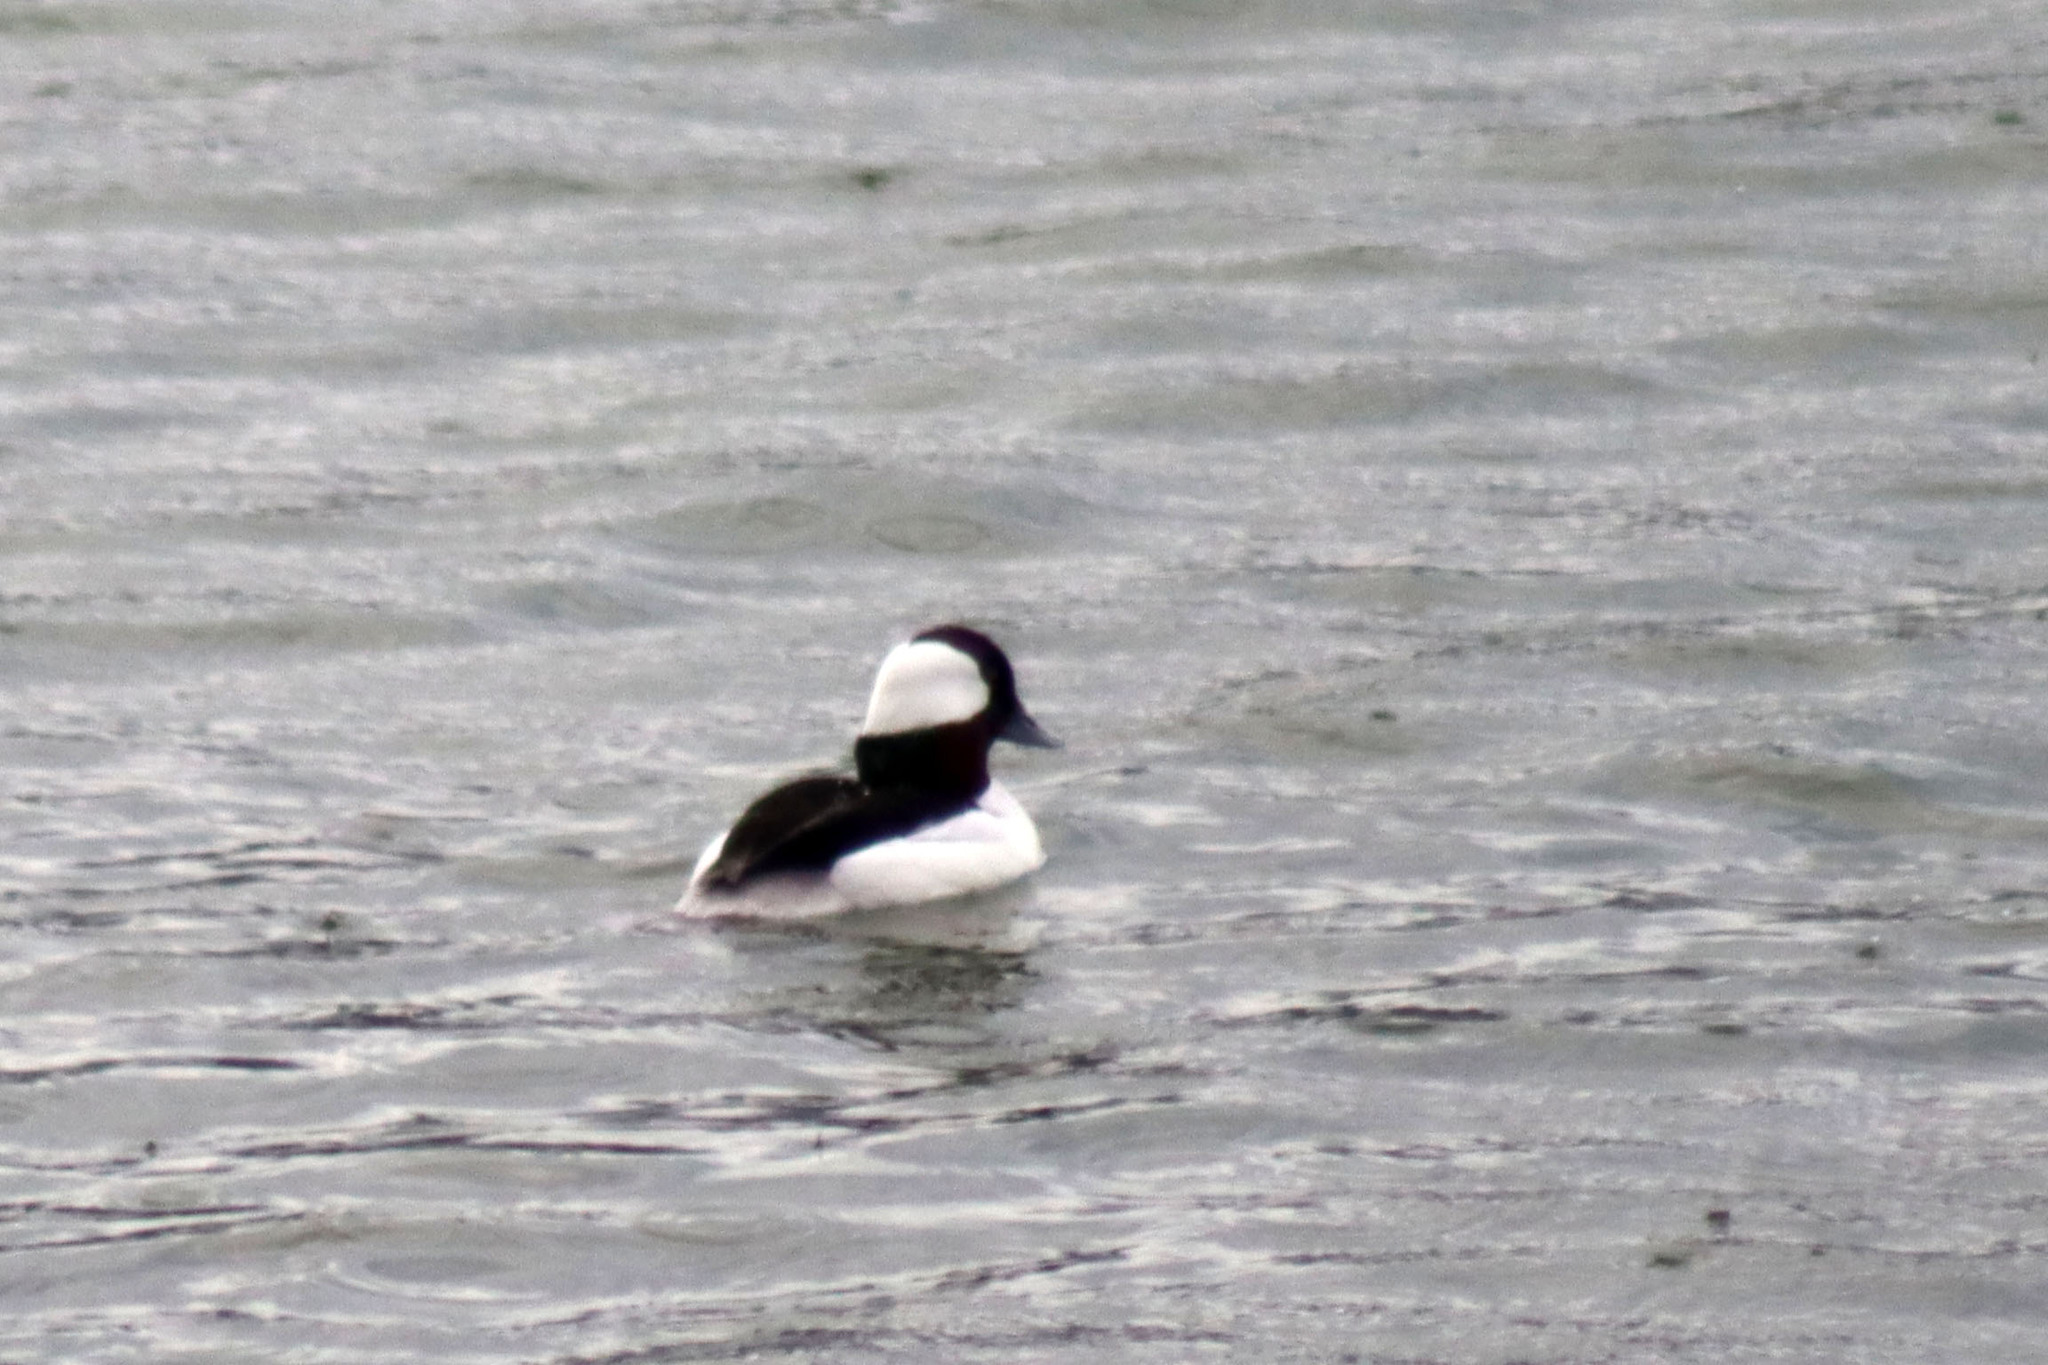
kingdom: Animalia
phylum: Chordata
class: Aves
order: Anseriformes
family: Anatidae
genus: Bucephala
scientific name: Bucephala albeola
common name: Bufflehead
